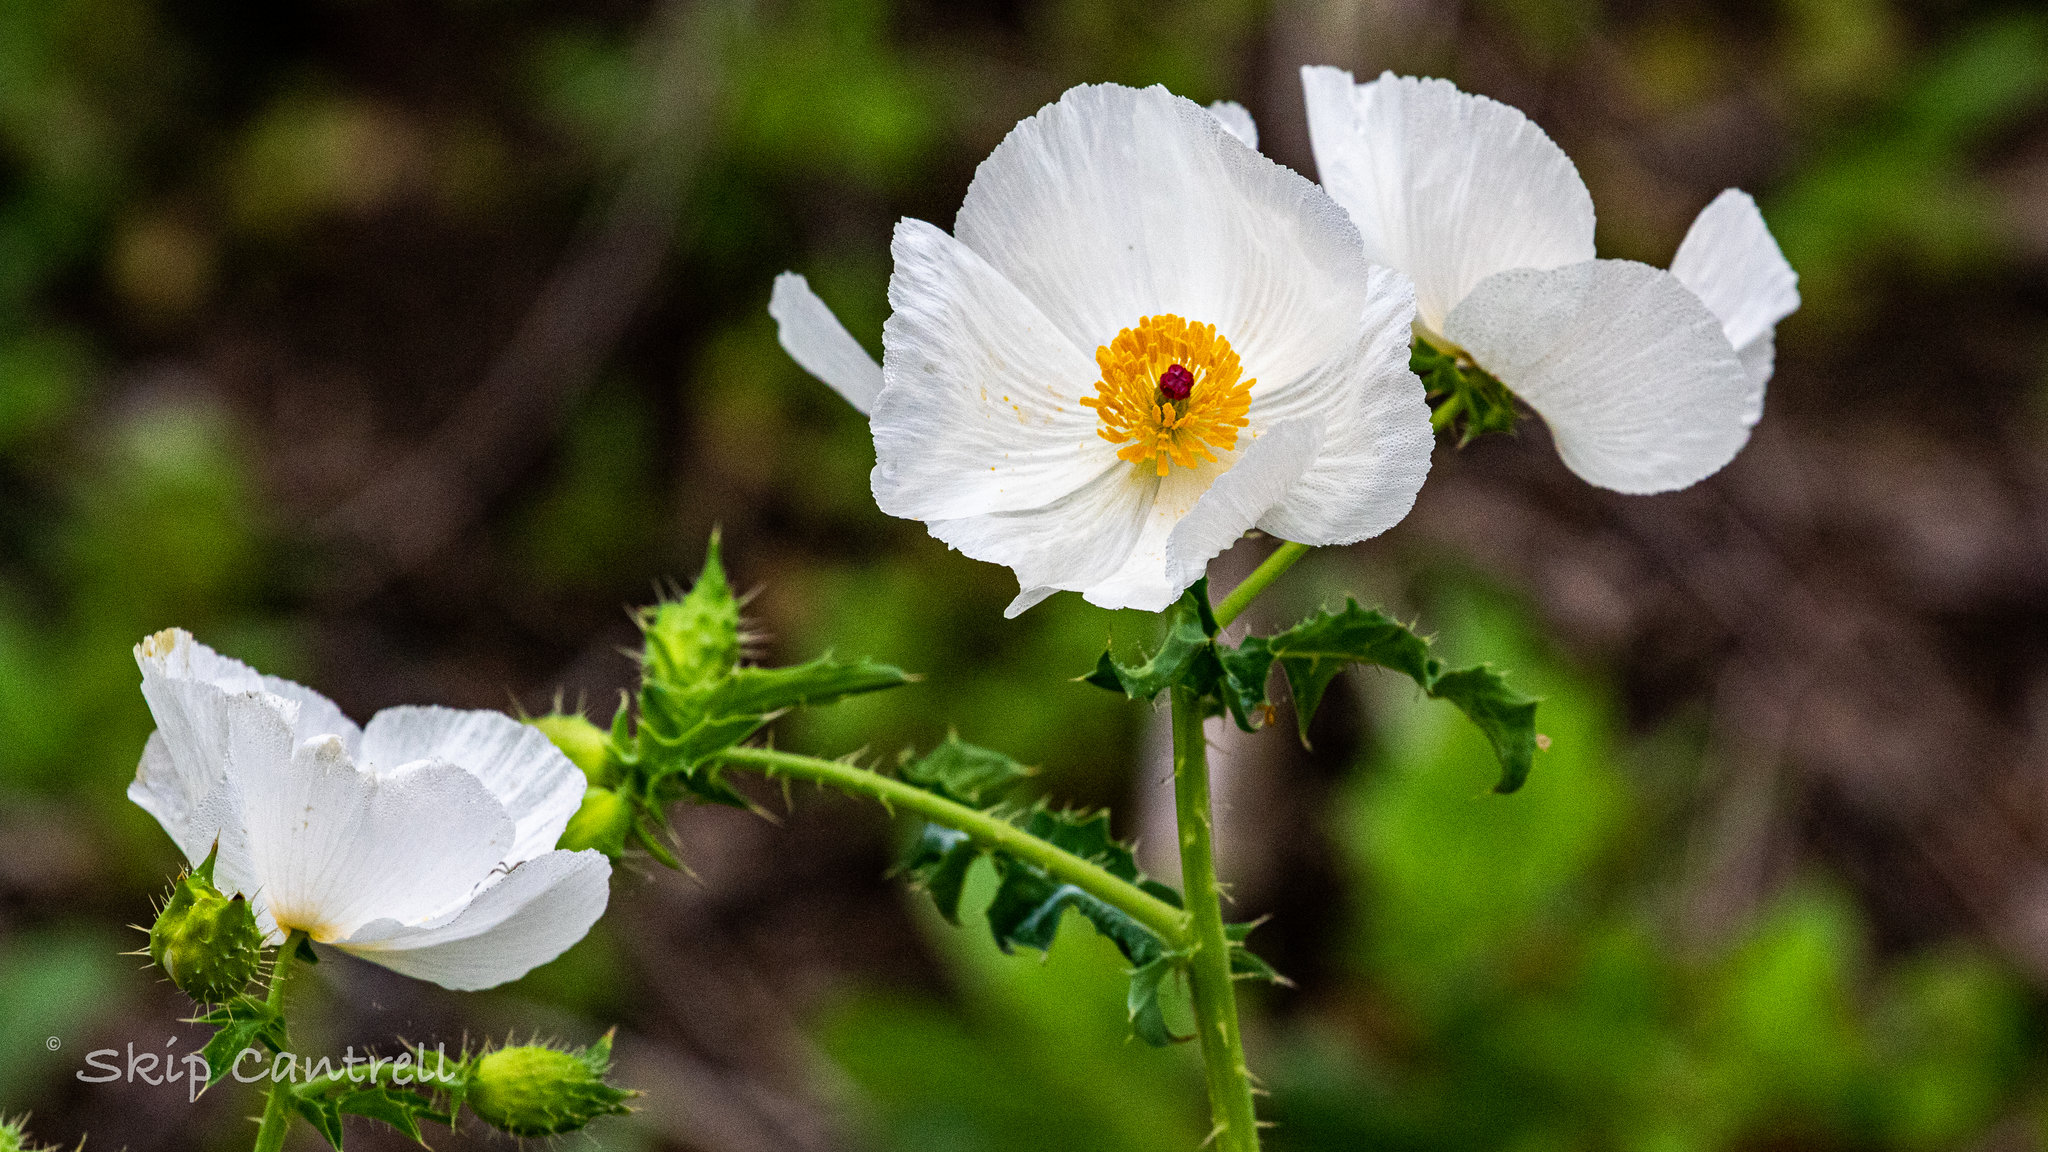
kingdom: Plantae
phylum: Tracheophyta
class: Magnoliopsida
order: Ranunculales
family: Papaveraceae
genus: Argemone
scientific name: Argemone albiflora
